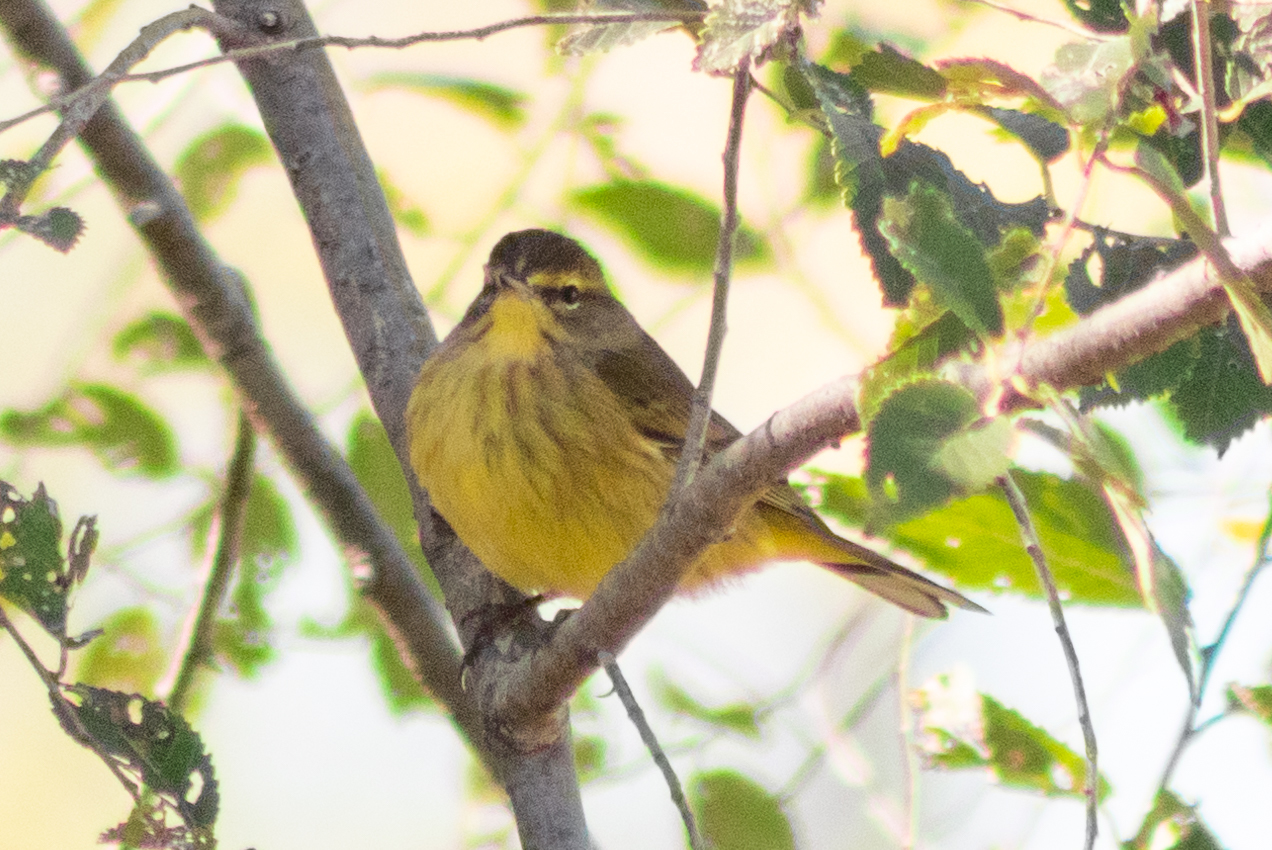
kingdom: Animalia
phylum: Chordata
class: Aves
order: Passeriformes
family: Parulidae
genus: Setophaga
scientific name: Setophaga palmarum
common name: Palm warbler
